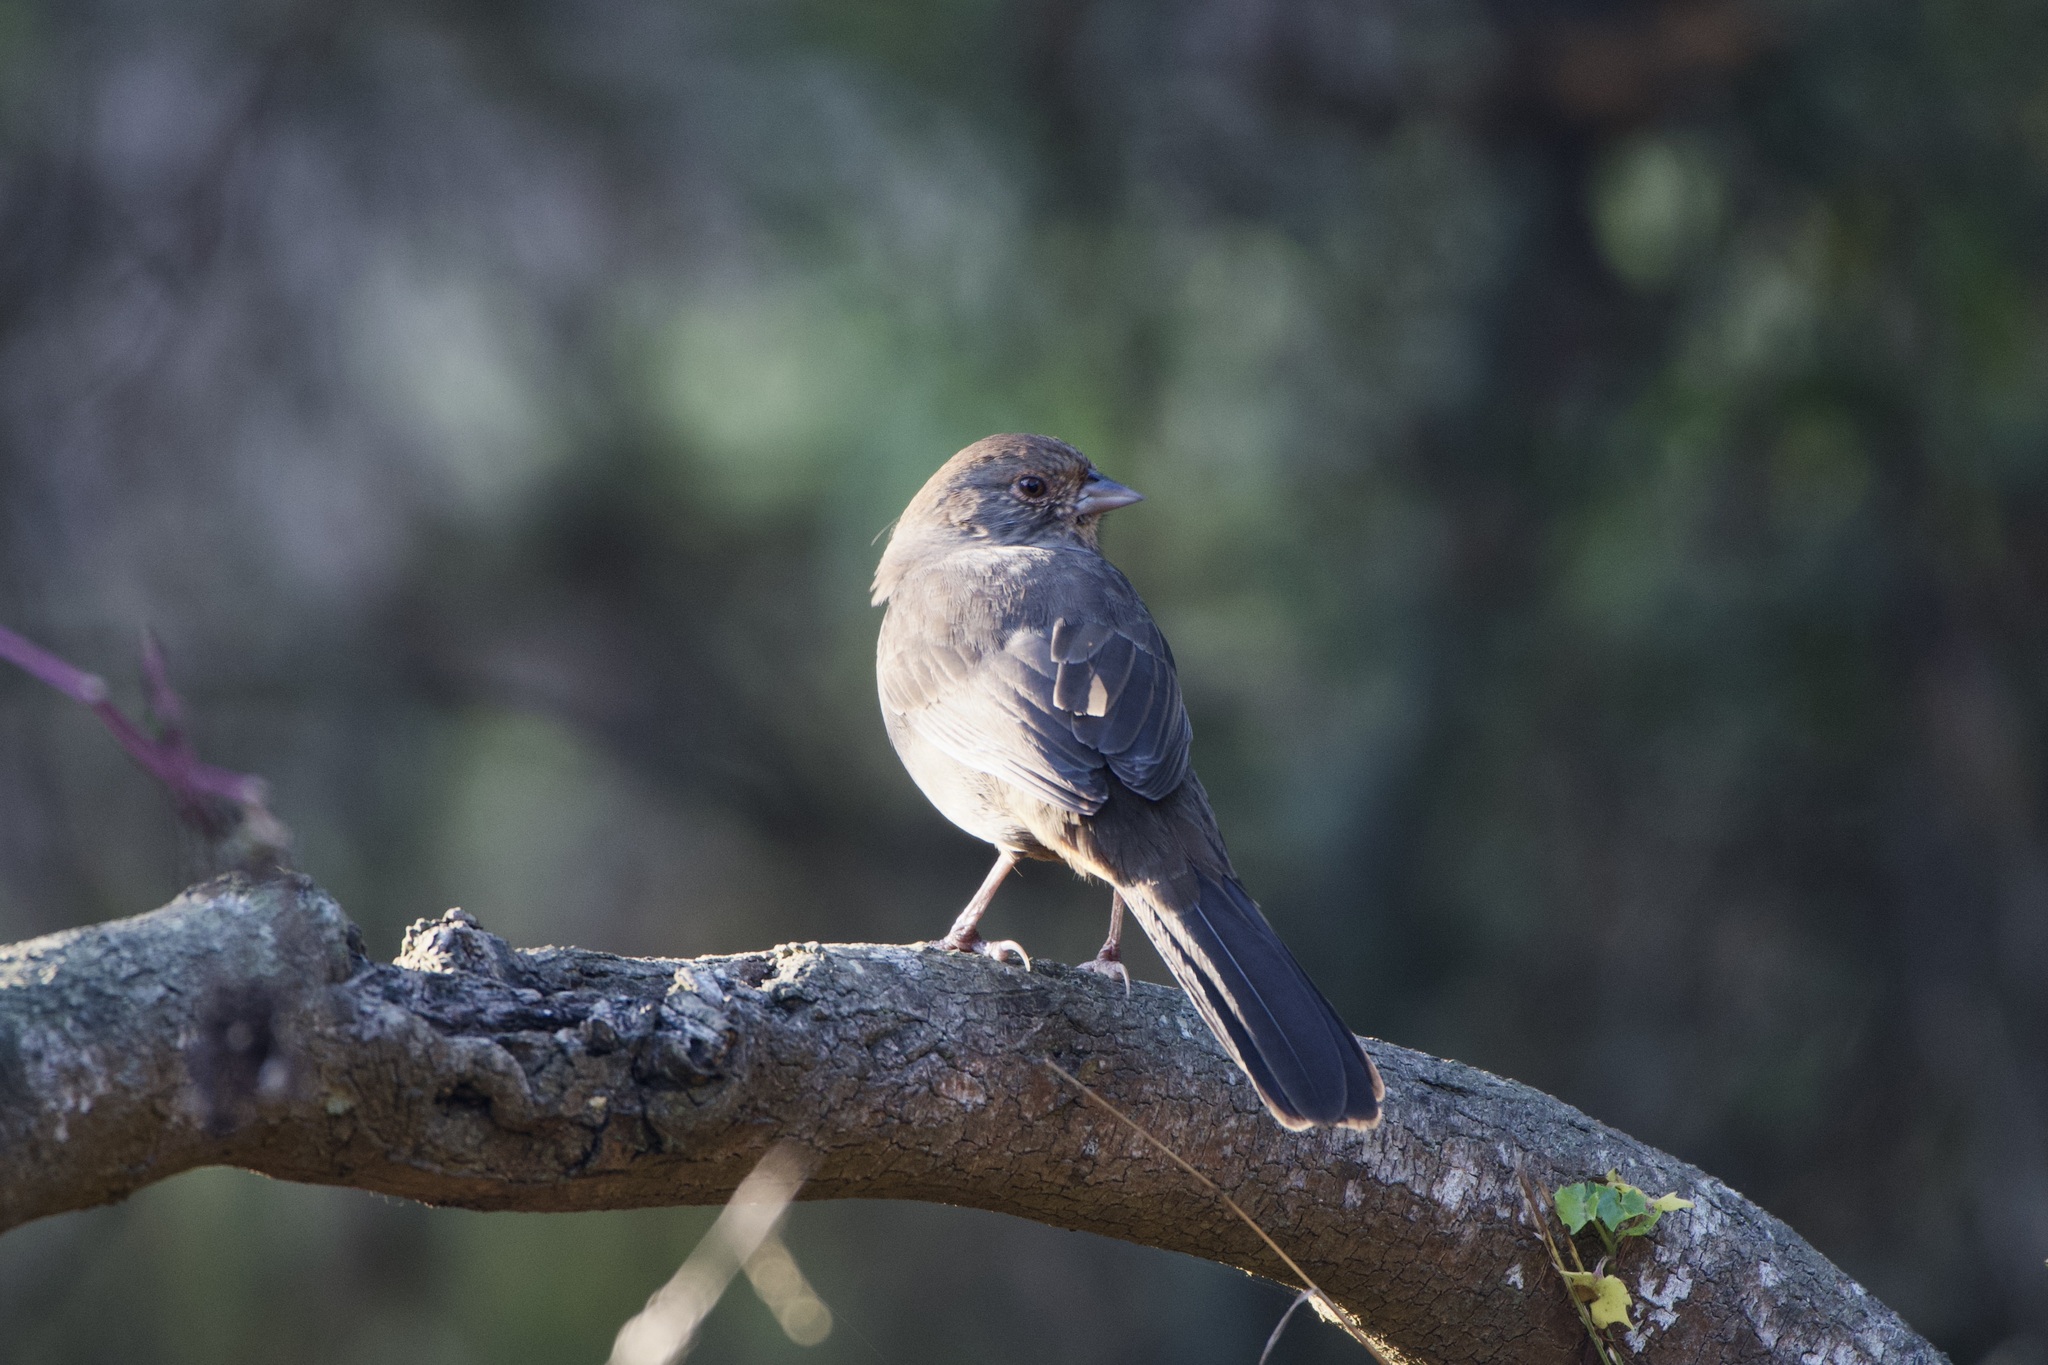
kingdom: Animalia
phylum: Chordata
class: Aves
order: Passeriformes
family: Passerellidae
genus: Melozone
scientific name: Melozone crissalis
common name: California towhee
